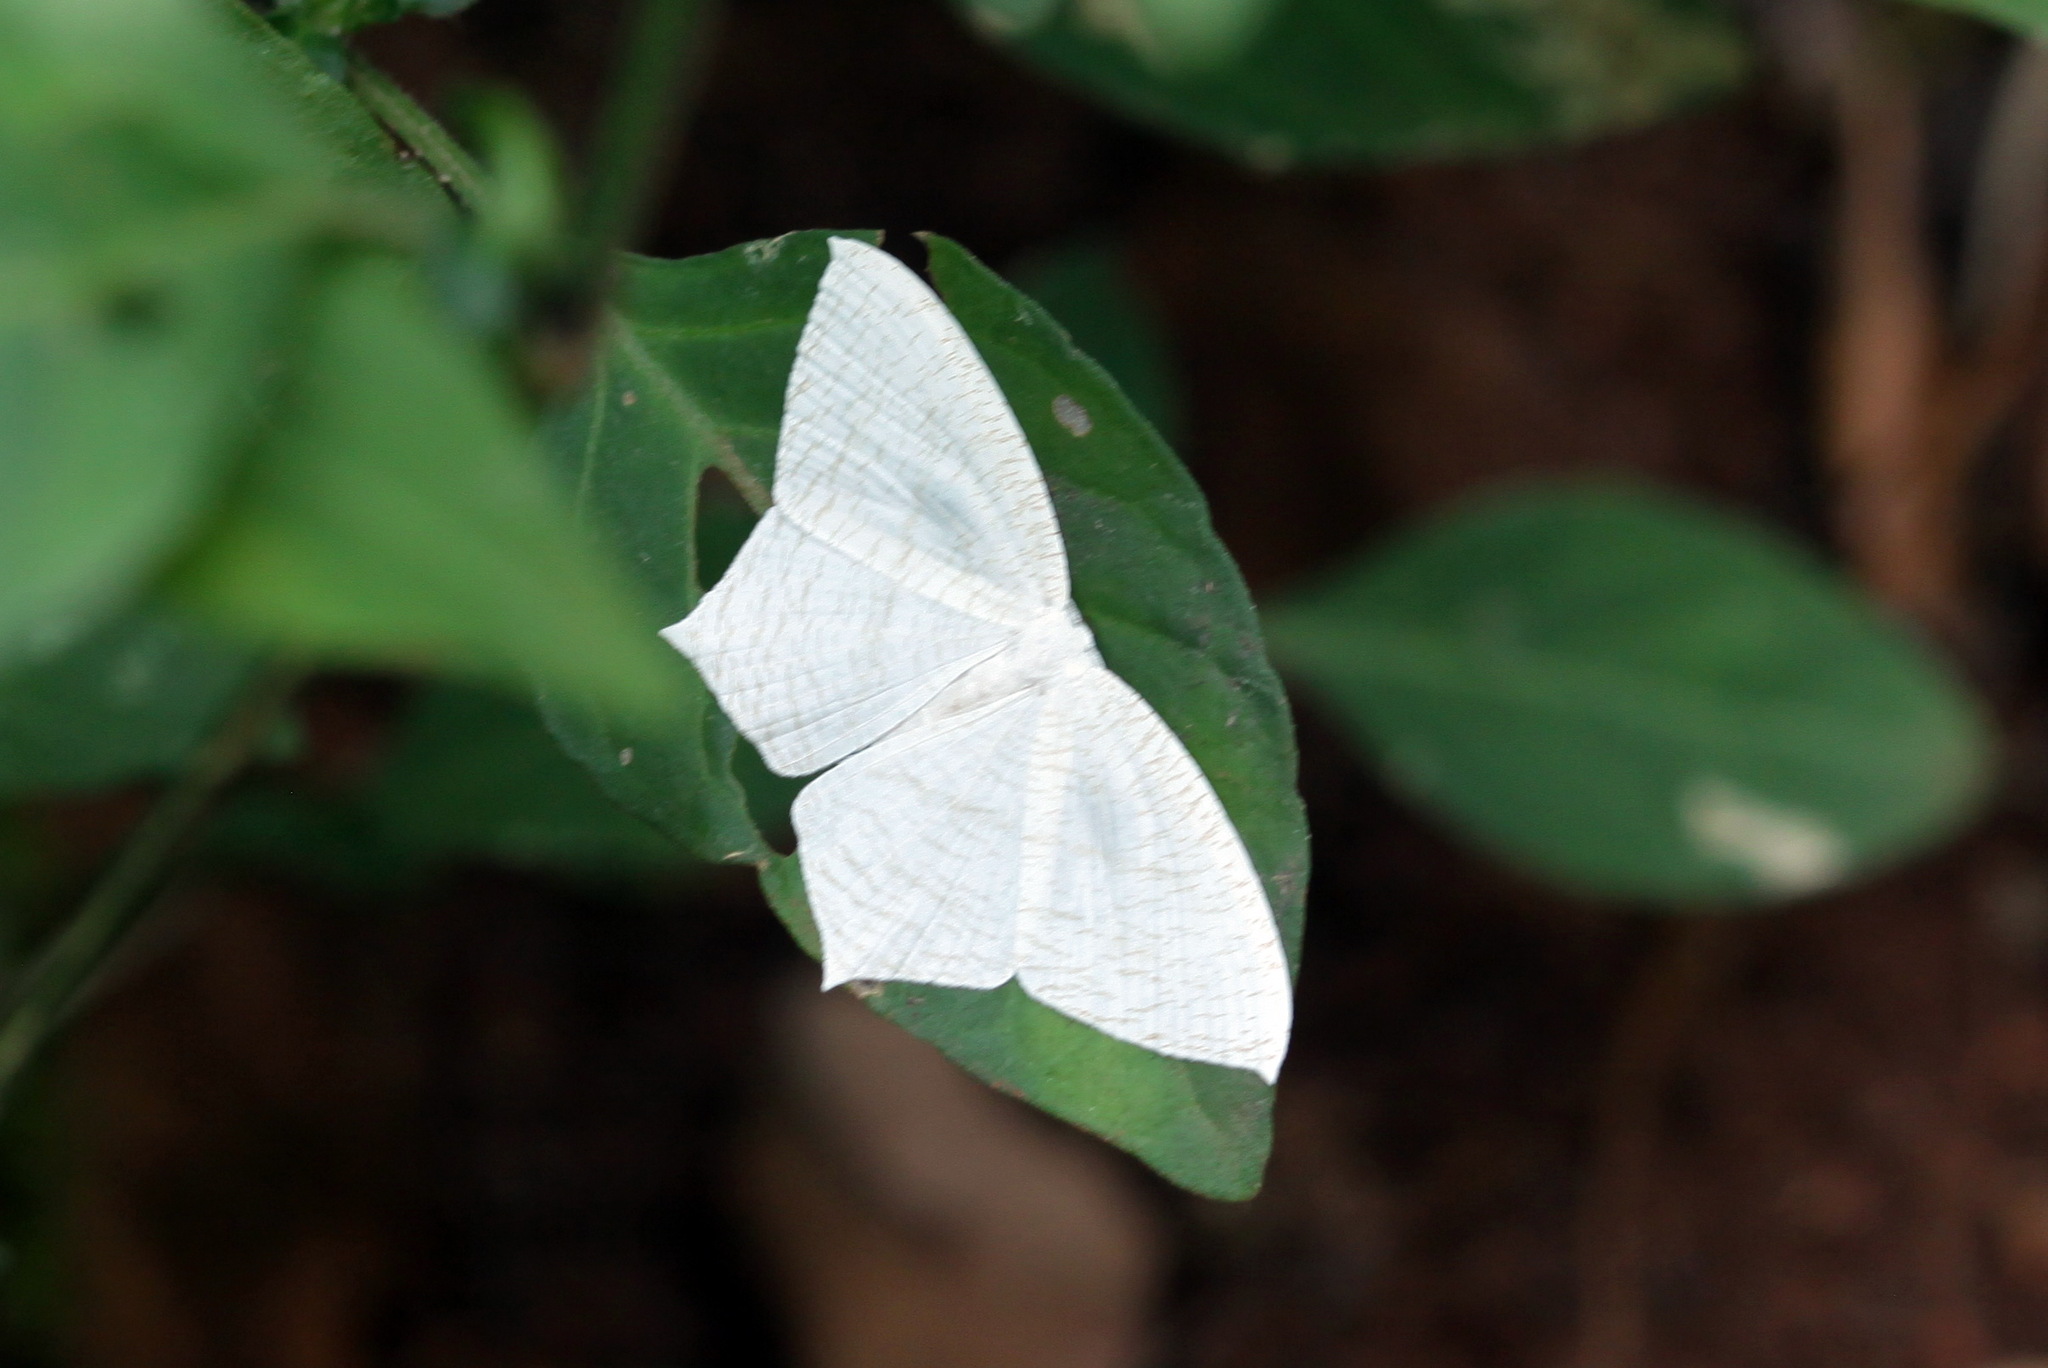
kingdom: Animalia
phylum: Arthropoda
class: Insecta
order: Lepidoptera
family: Uraniidae
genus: Acropteris
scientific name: Acropteris illiturata
